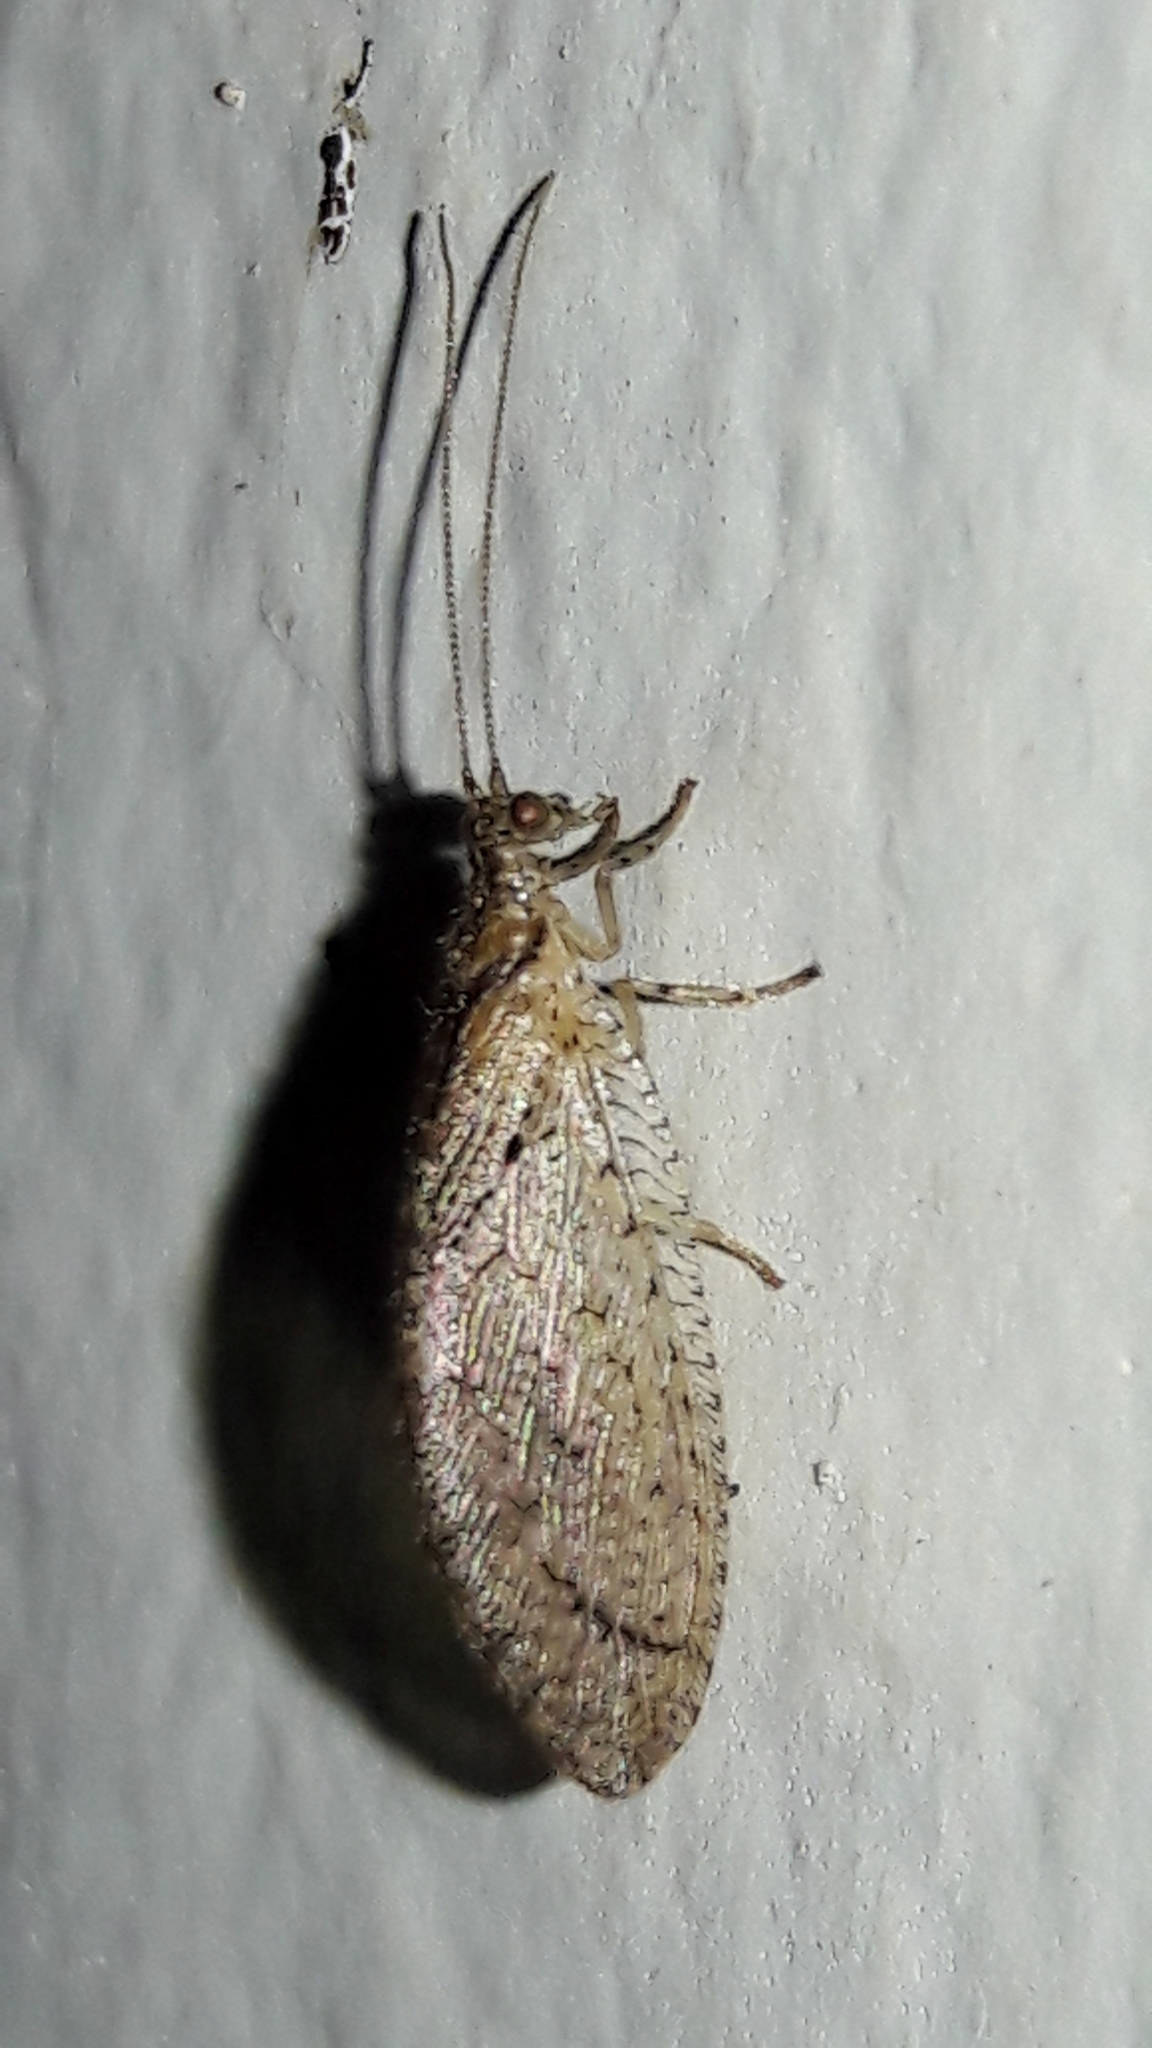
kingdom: Animalia
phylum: Arthropoda
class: Insecta
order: Neuroptera
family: Hemerobiidae
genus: Nusalala
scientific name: Nusalala tessellata
